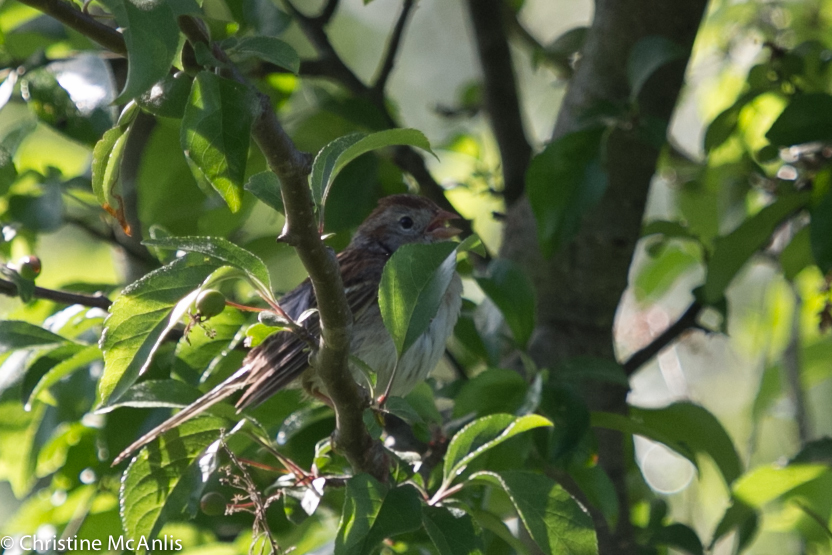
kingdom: Animalia
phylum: Chordata
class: Aves
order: Passeriformes
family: Passerellidae
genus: Spizella
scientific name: Spizella pusilla
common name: Field sparrow
